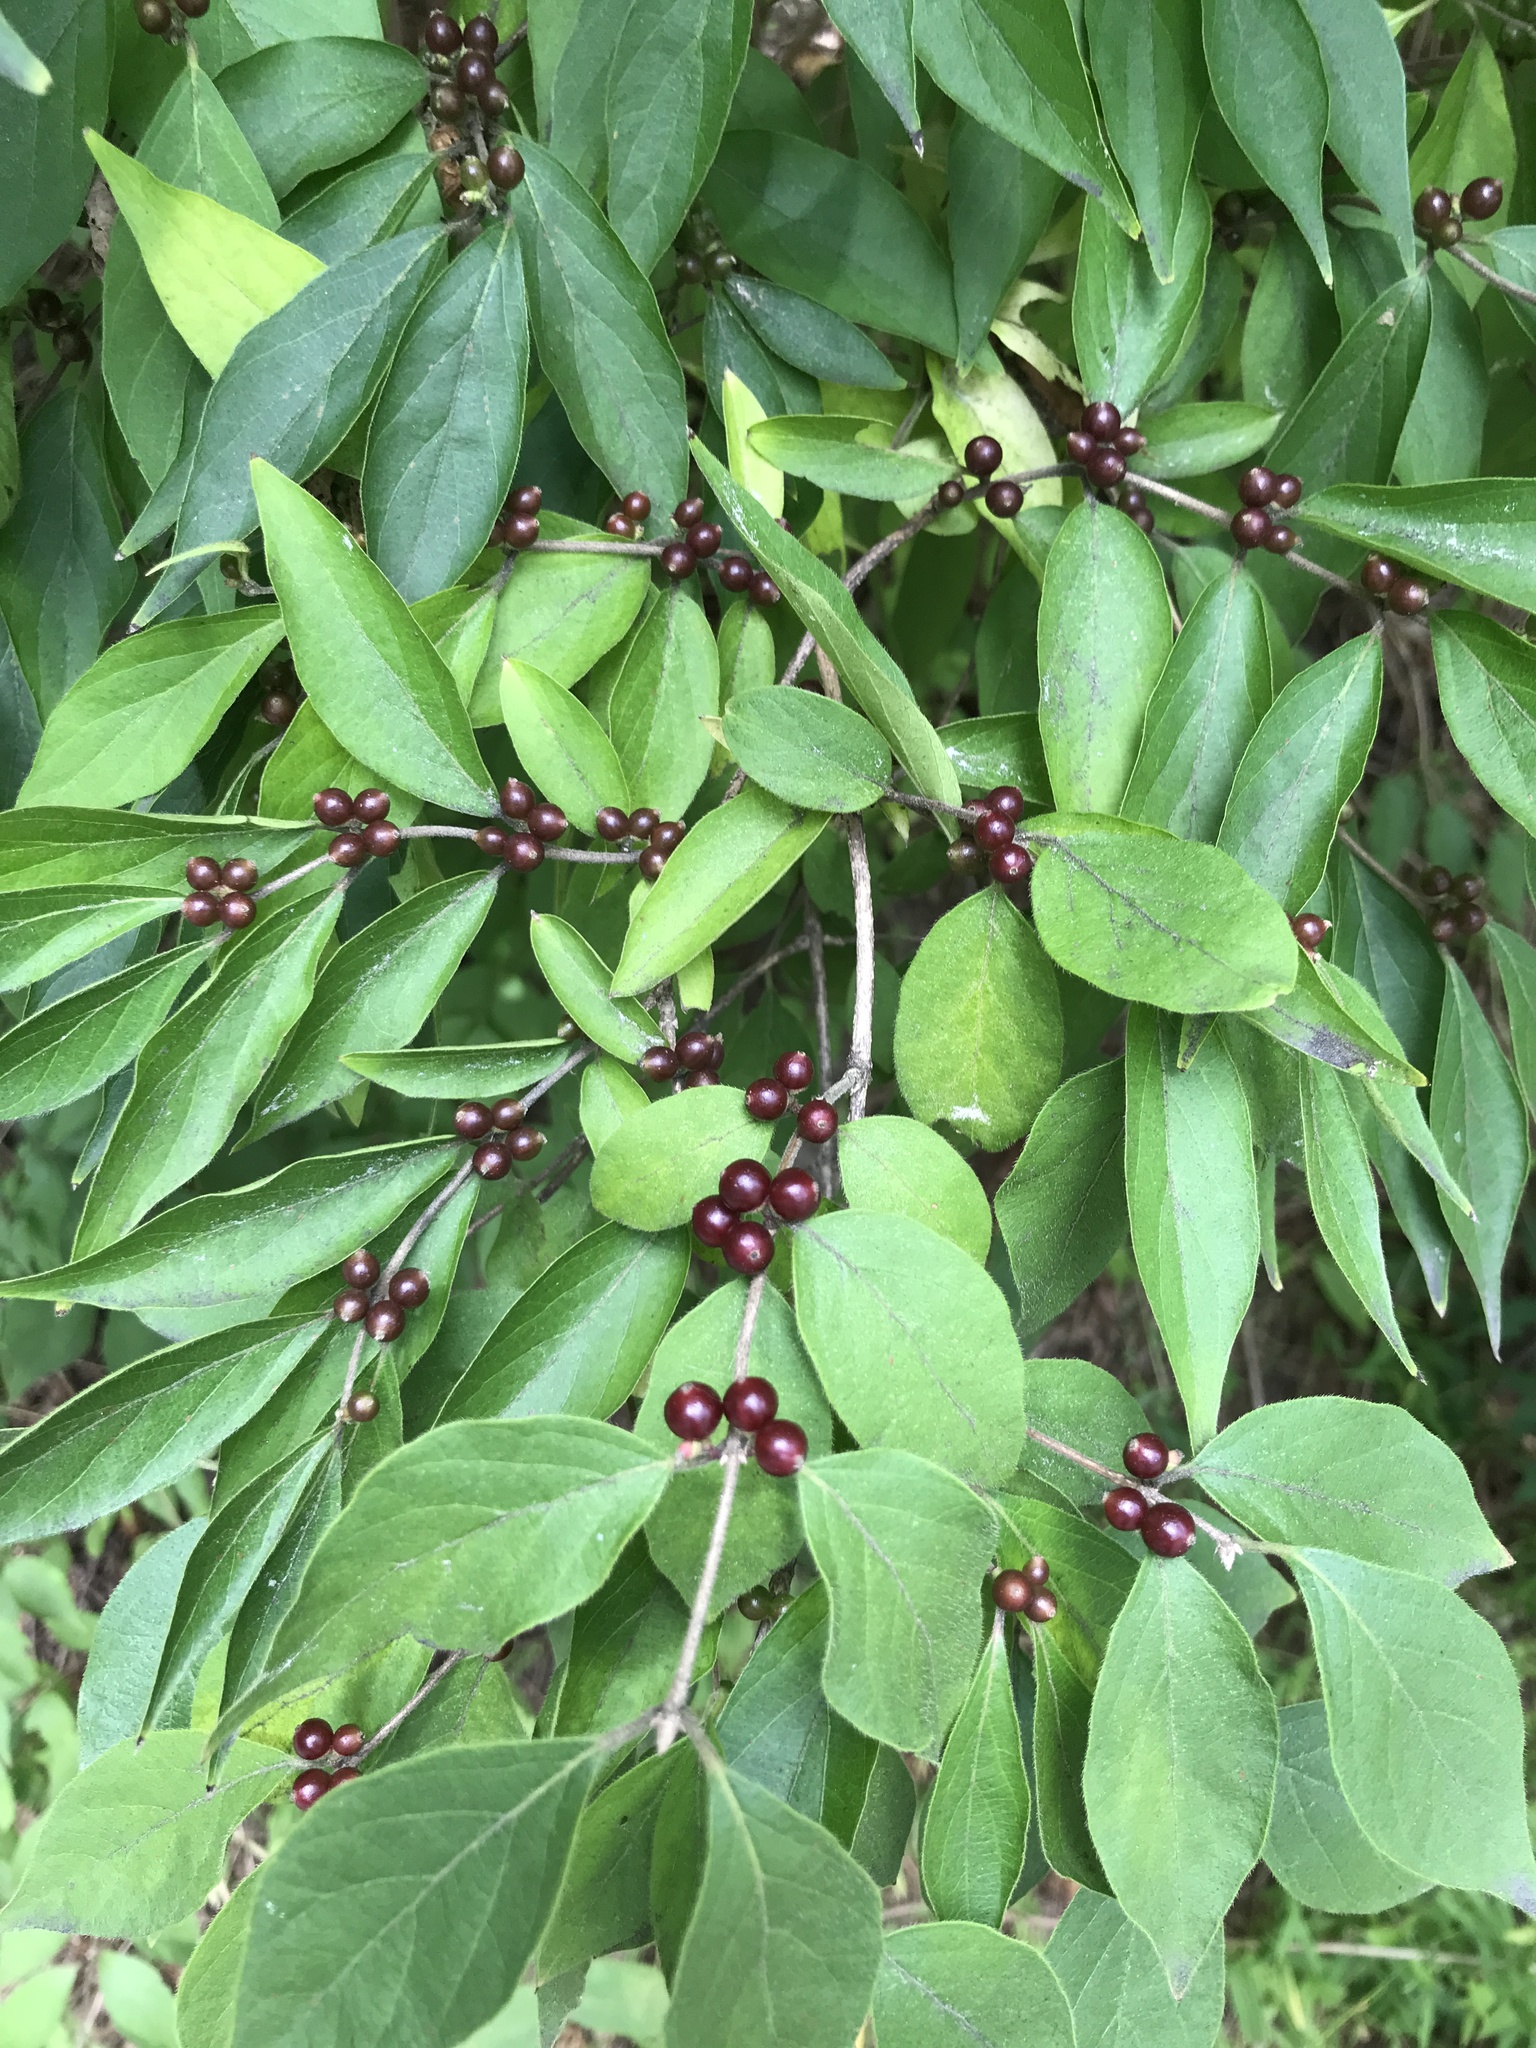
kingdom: Plantae
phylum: Tracheophyta
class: Magnoliopsida
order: Dipsacales
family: Caprifoliaceae
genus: Lonicera
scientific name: Lonicera maackii
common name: Amur honeysuckle
